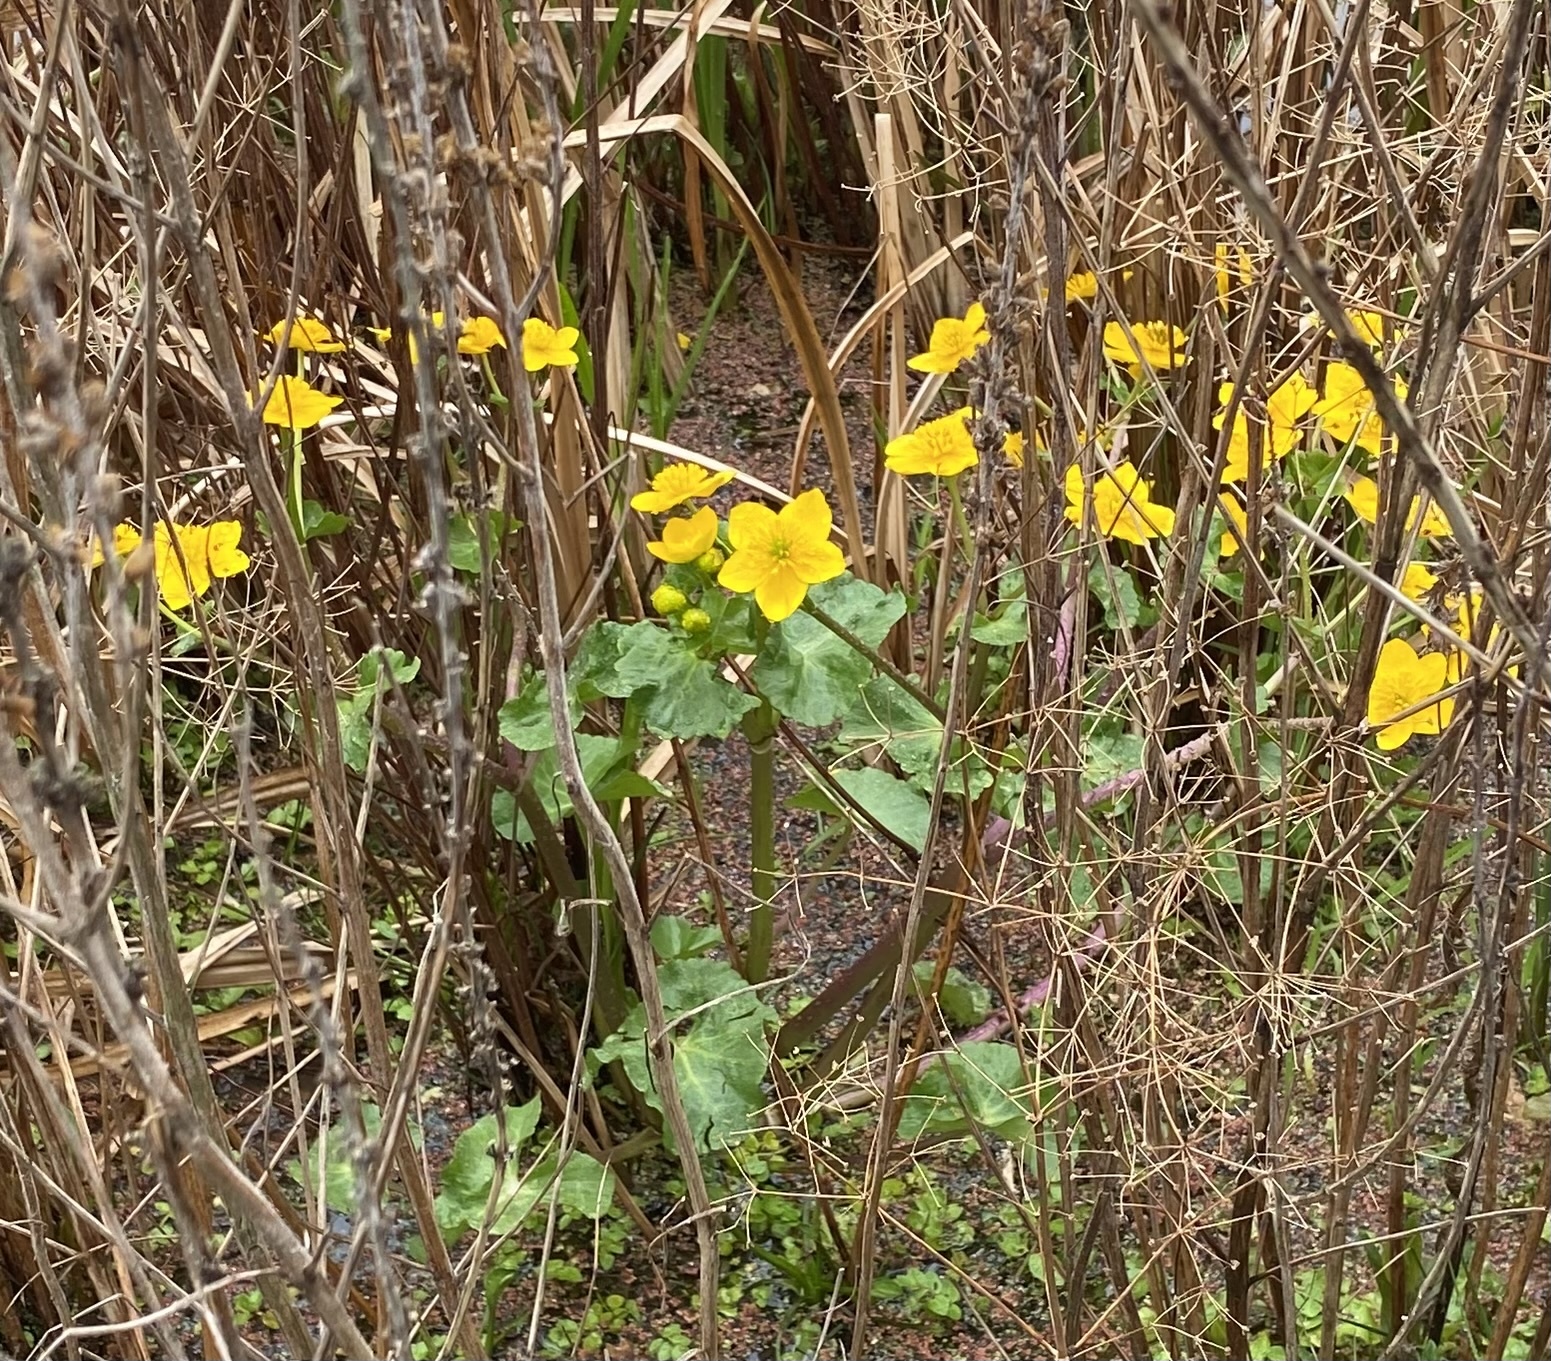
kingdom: Plantae
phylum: Tracheophyta
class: Magnoliopsida
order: Ranunculales
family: Ranunculaceae
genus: Caltha
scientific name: Caltha palustris
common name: Marsh marigold
